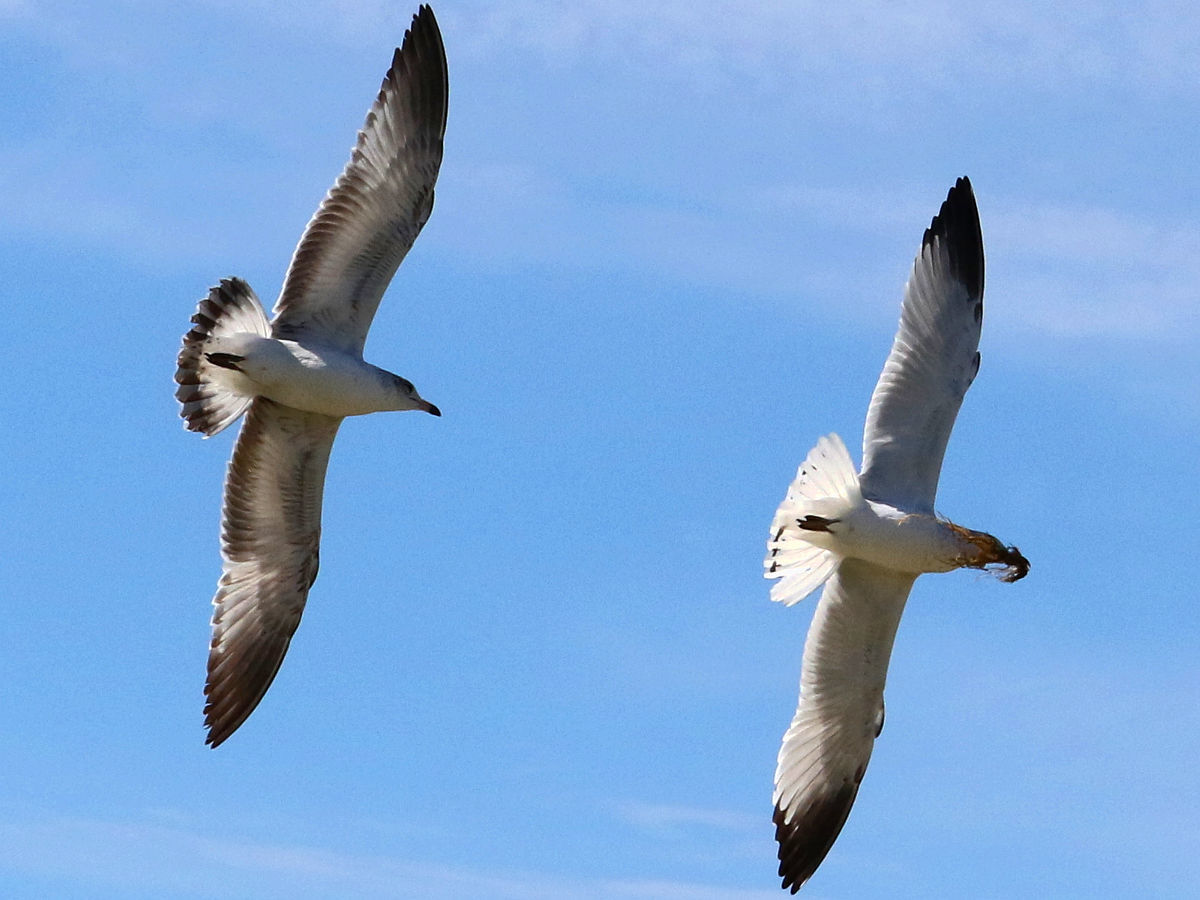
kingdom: Animalia
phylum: Chordata
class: Aves
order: Charadriiformes
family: Laridae
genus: Larus
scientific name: Larus delawarensis
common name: Ring-billed gull
